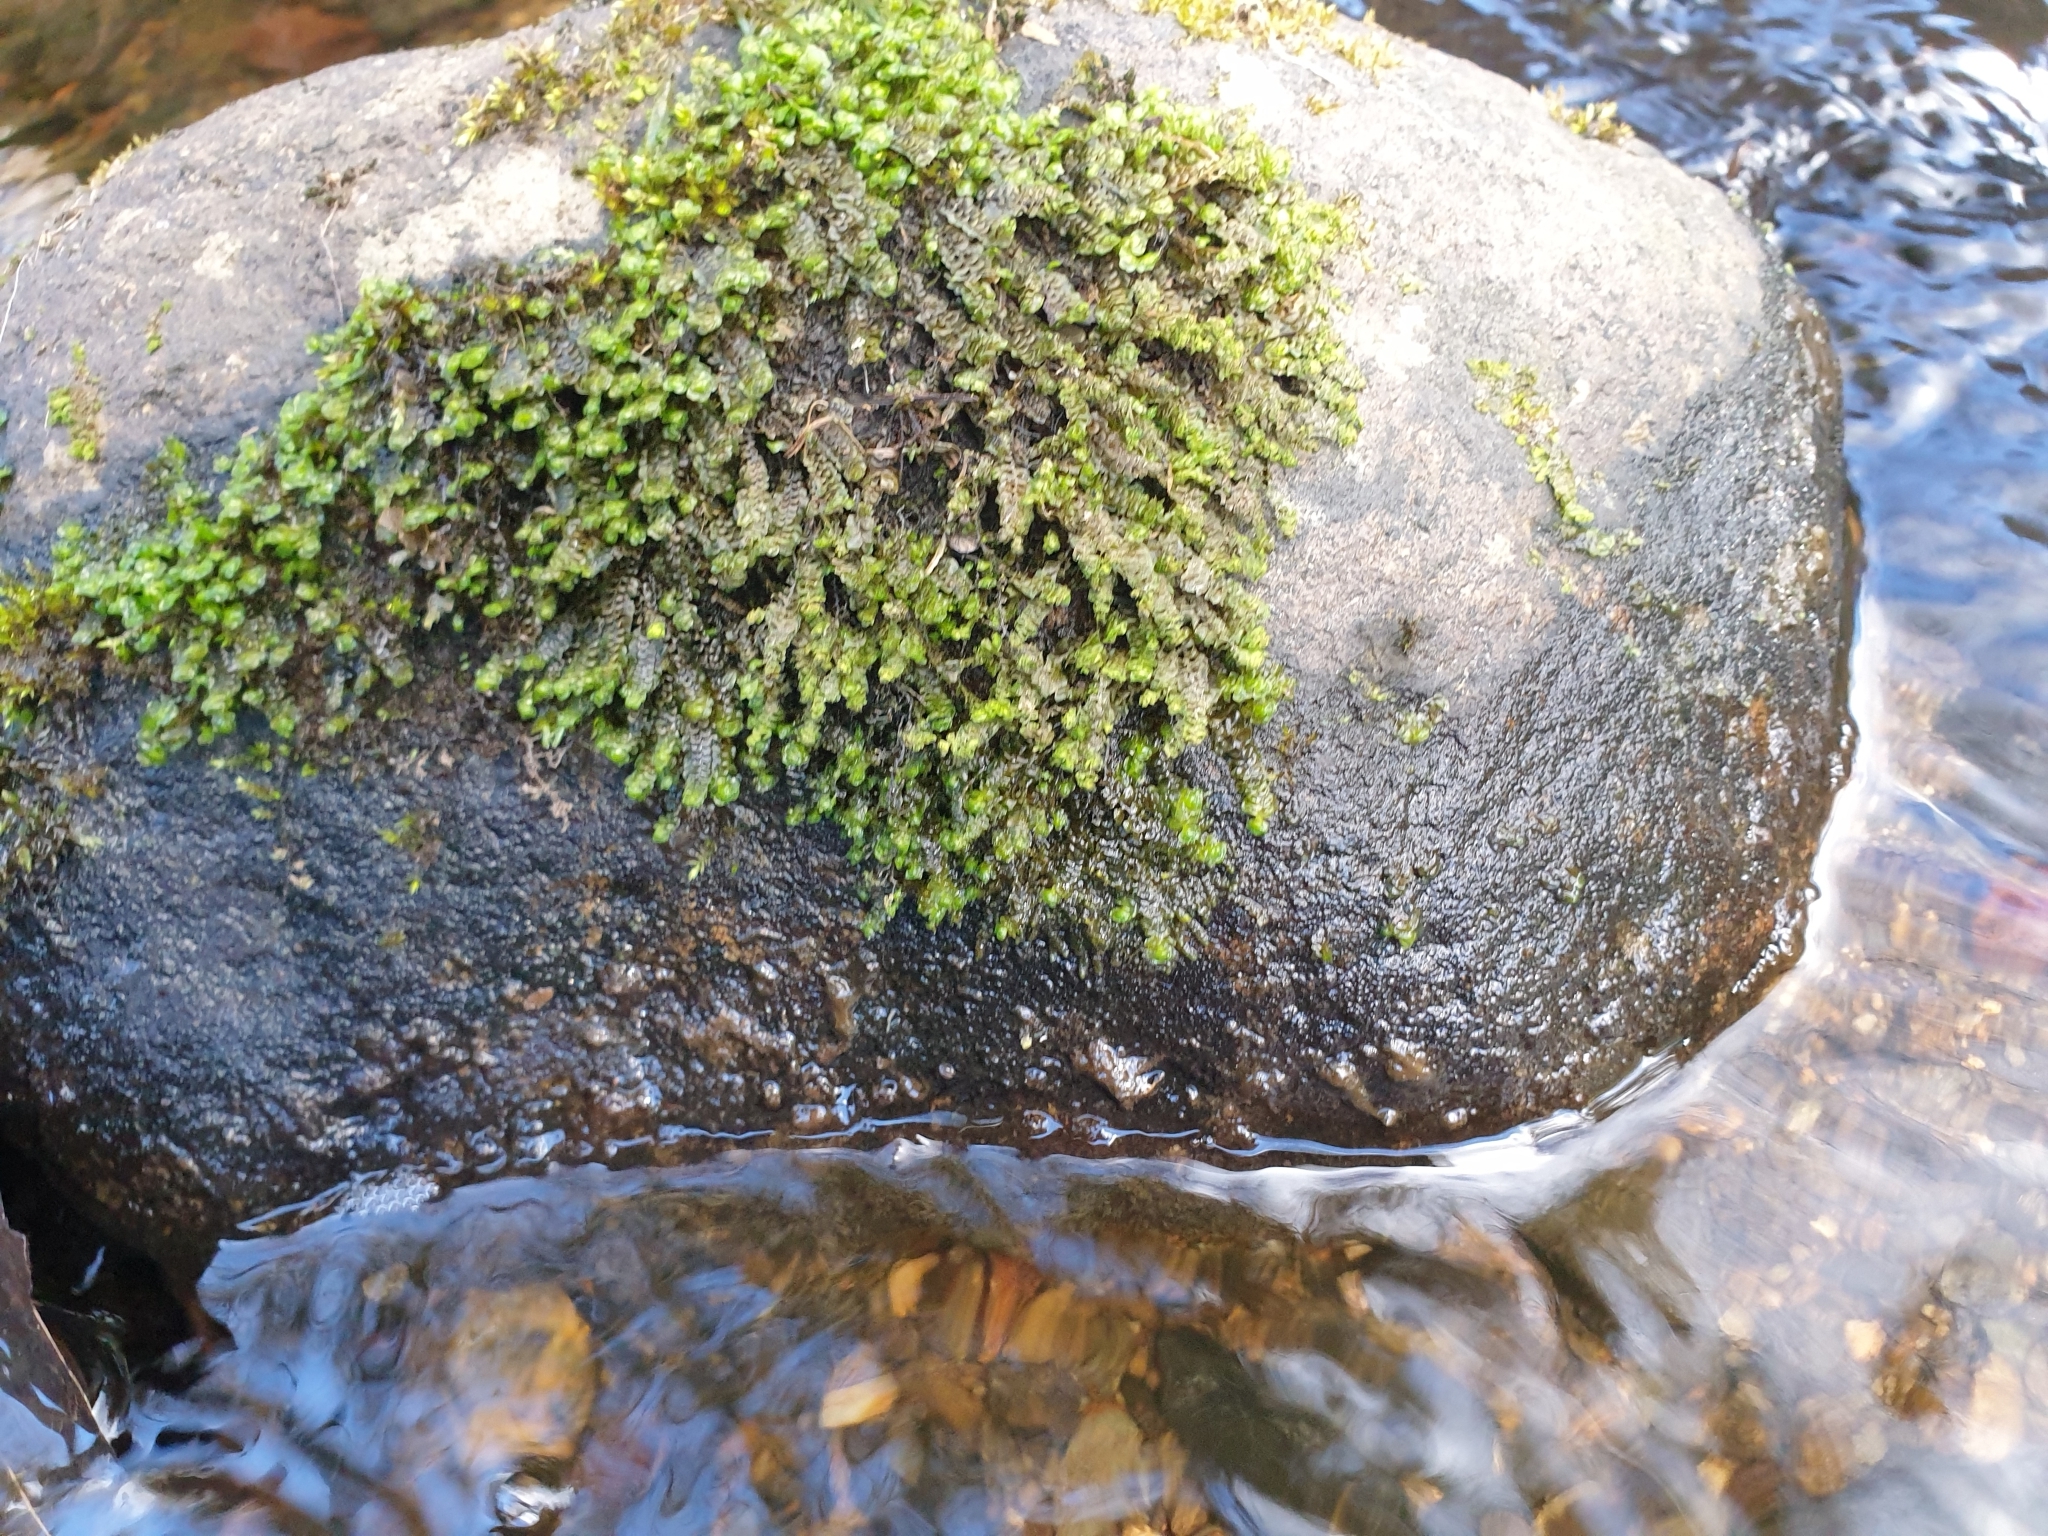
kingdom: Plantae
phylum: Marchantiophyta
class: Jungermanniopsida
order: Jungermanniales
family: Scapaniaceae
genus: Scapania
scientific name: Scapania undulata
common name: Water earwort
